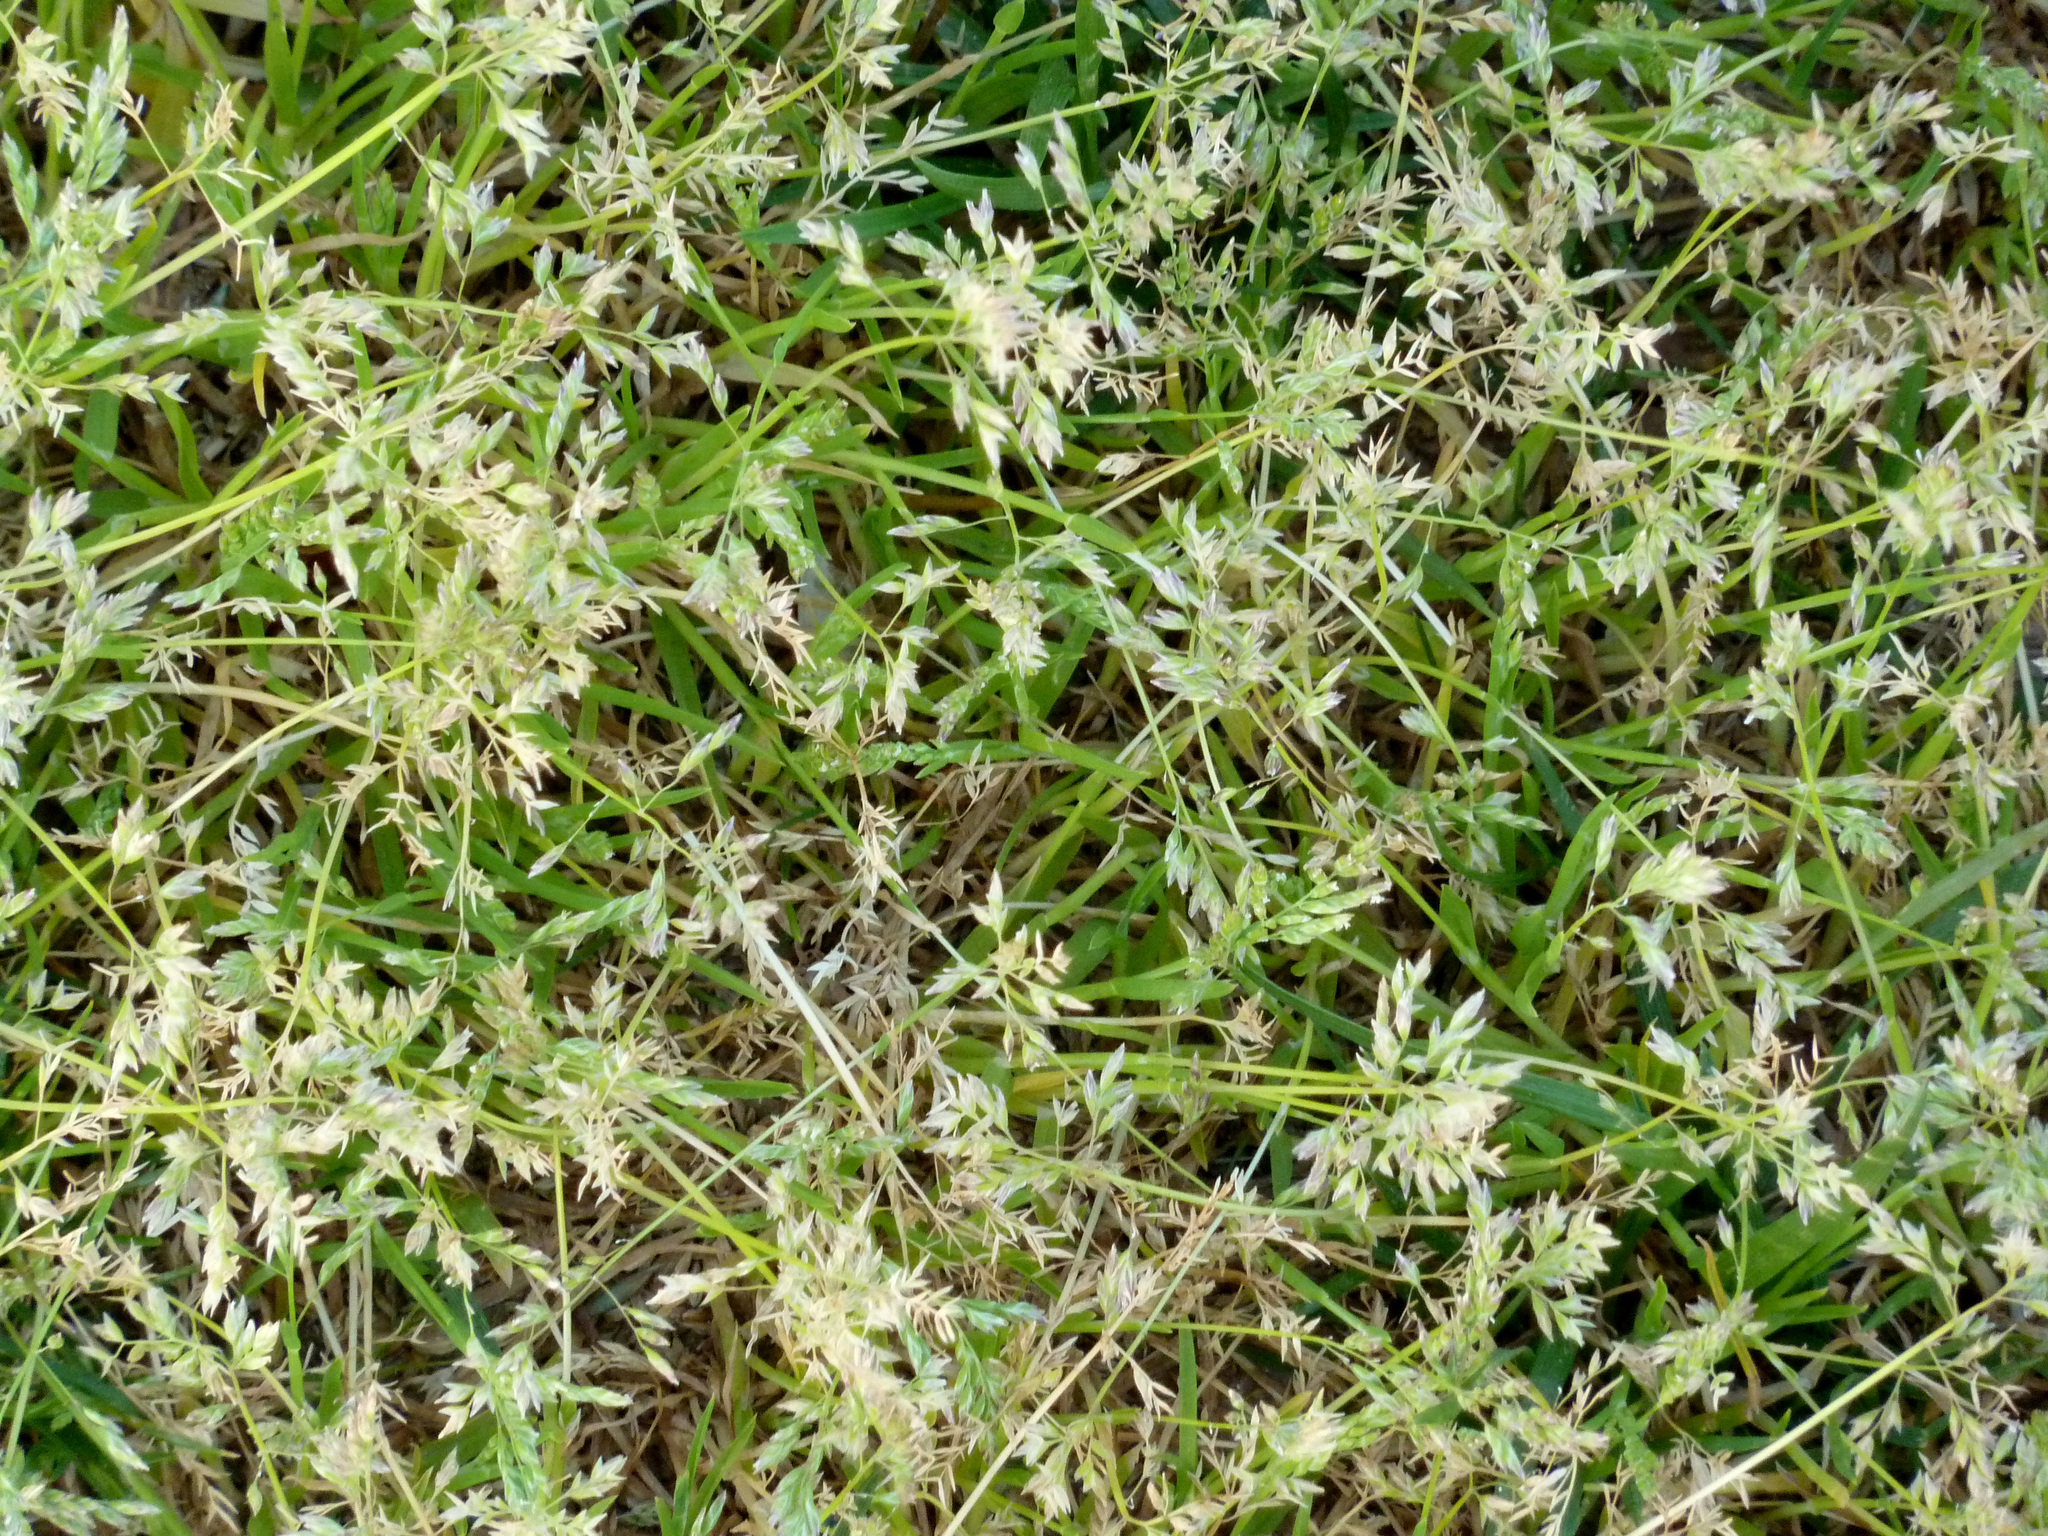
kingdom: Plantae
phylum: Tracheophyta
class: Liliopsida
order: Poales
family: Poaceae
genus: Poa
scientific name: Poa annua
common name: Annual bluegrass
